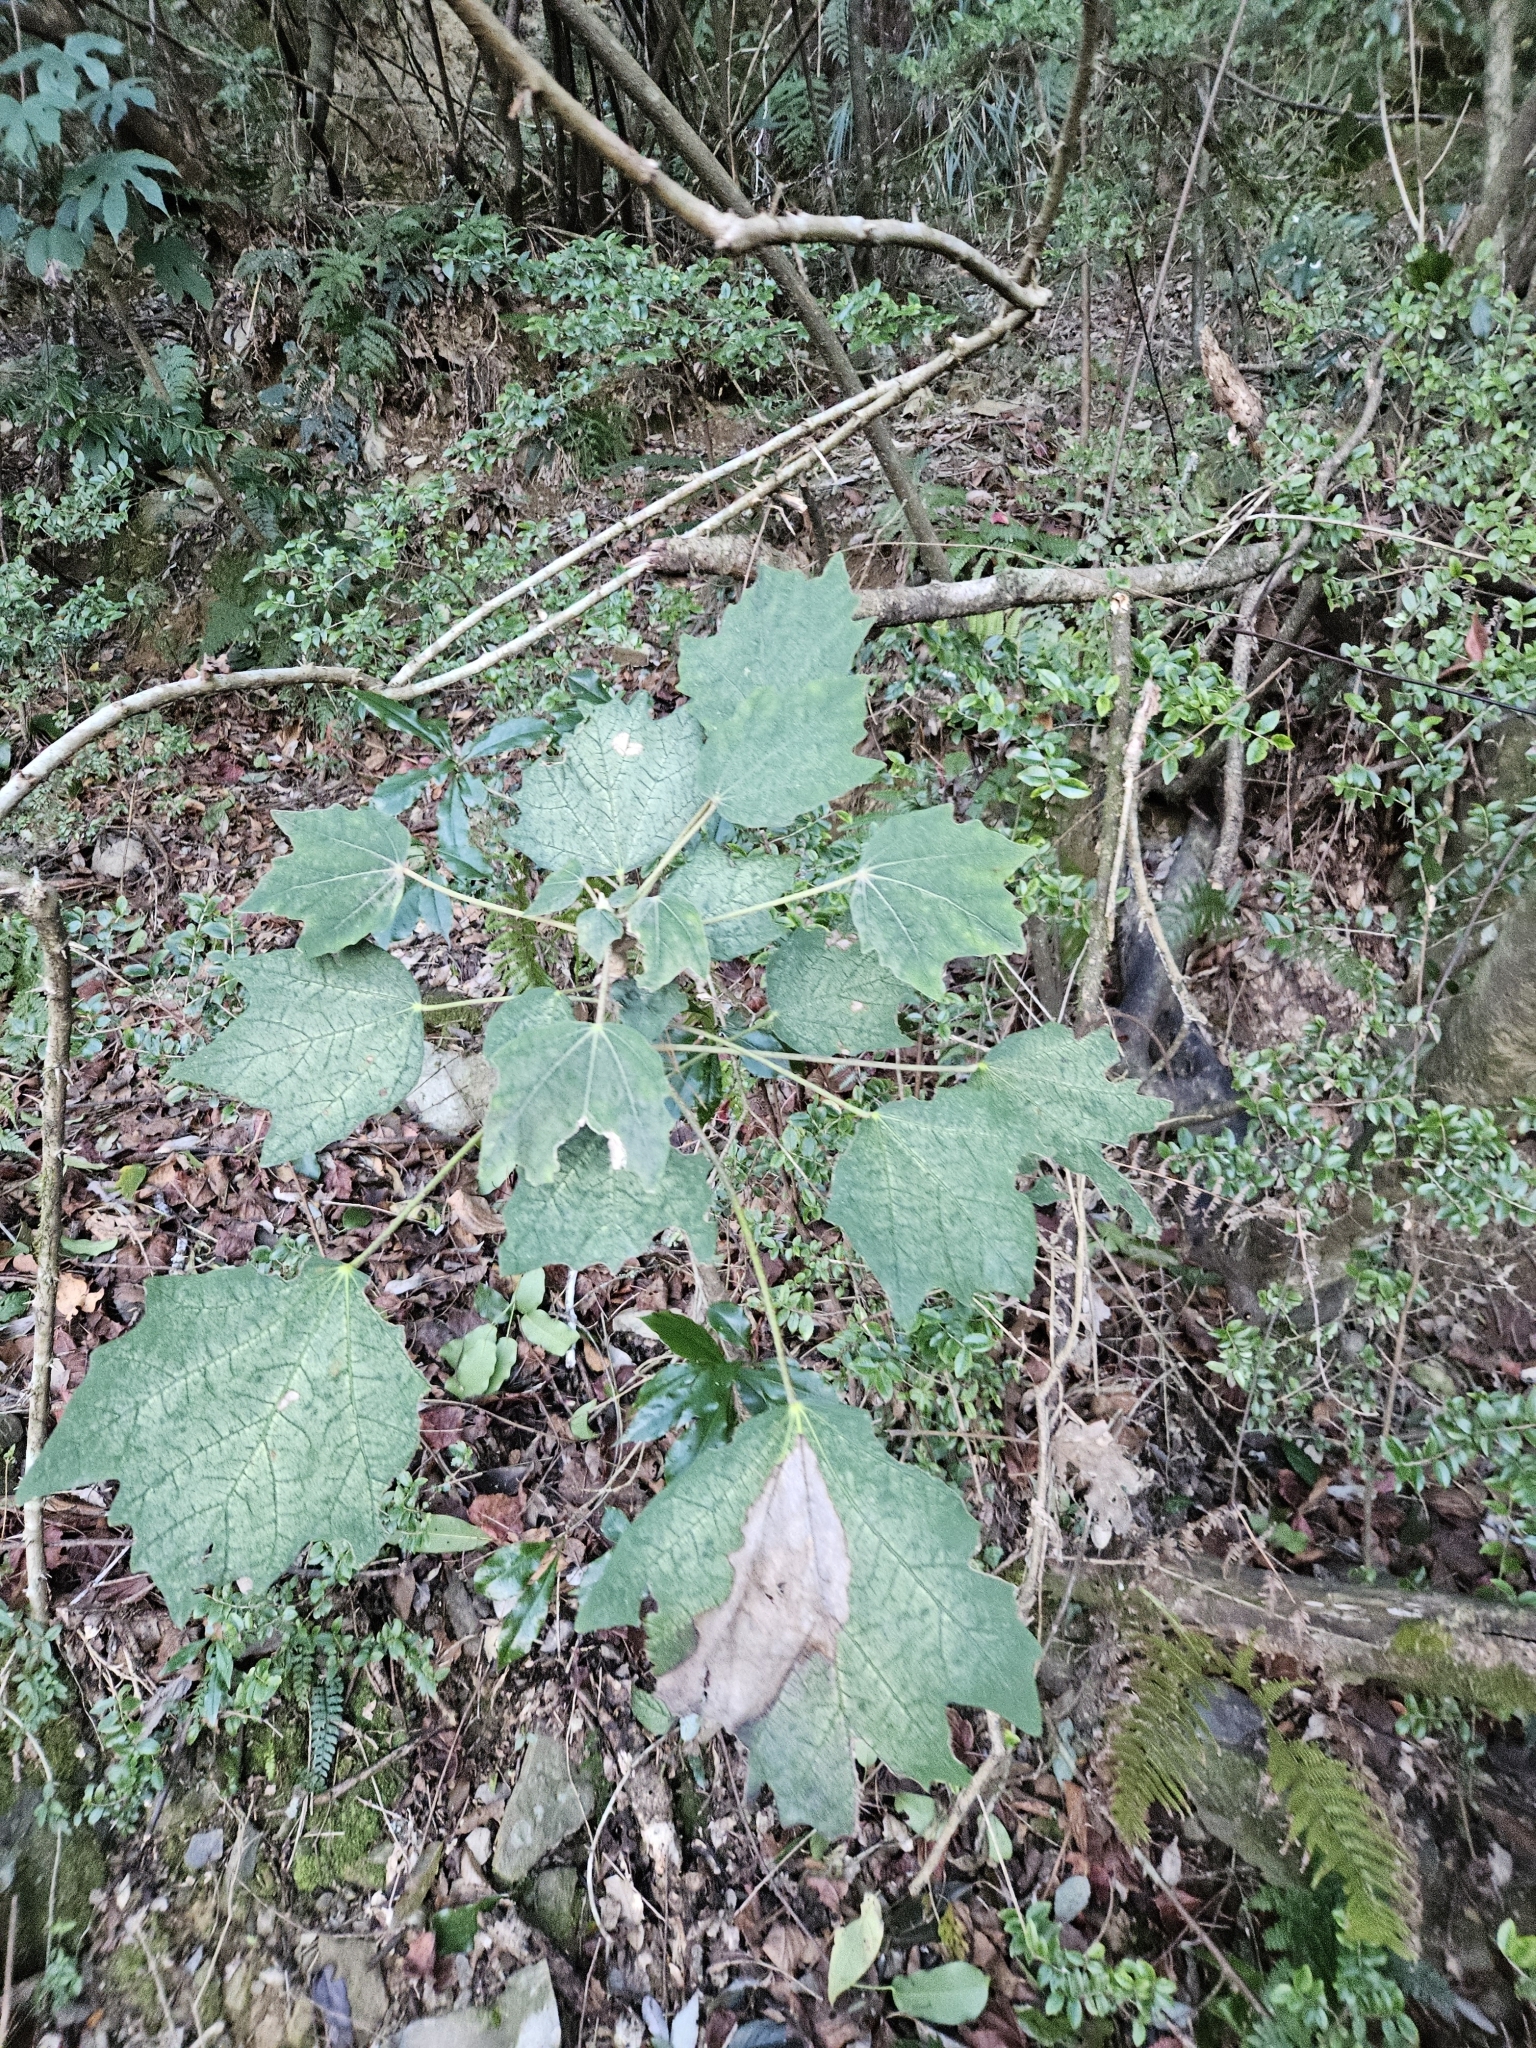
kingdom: Plantae
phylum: Tracheophyta
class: Magnoliopsida
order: Apiales
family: Araliaceae
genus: Sinopanax
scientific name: Sinopanax formosanus
